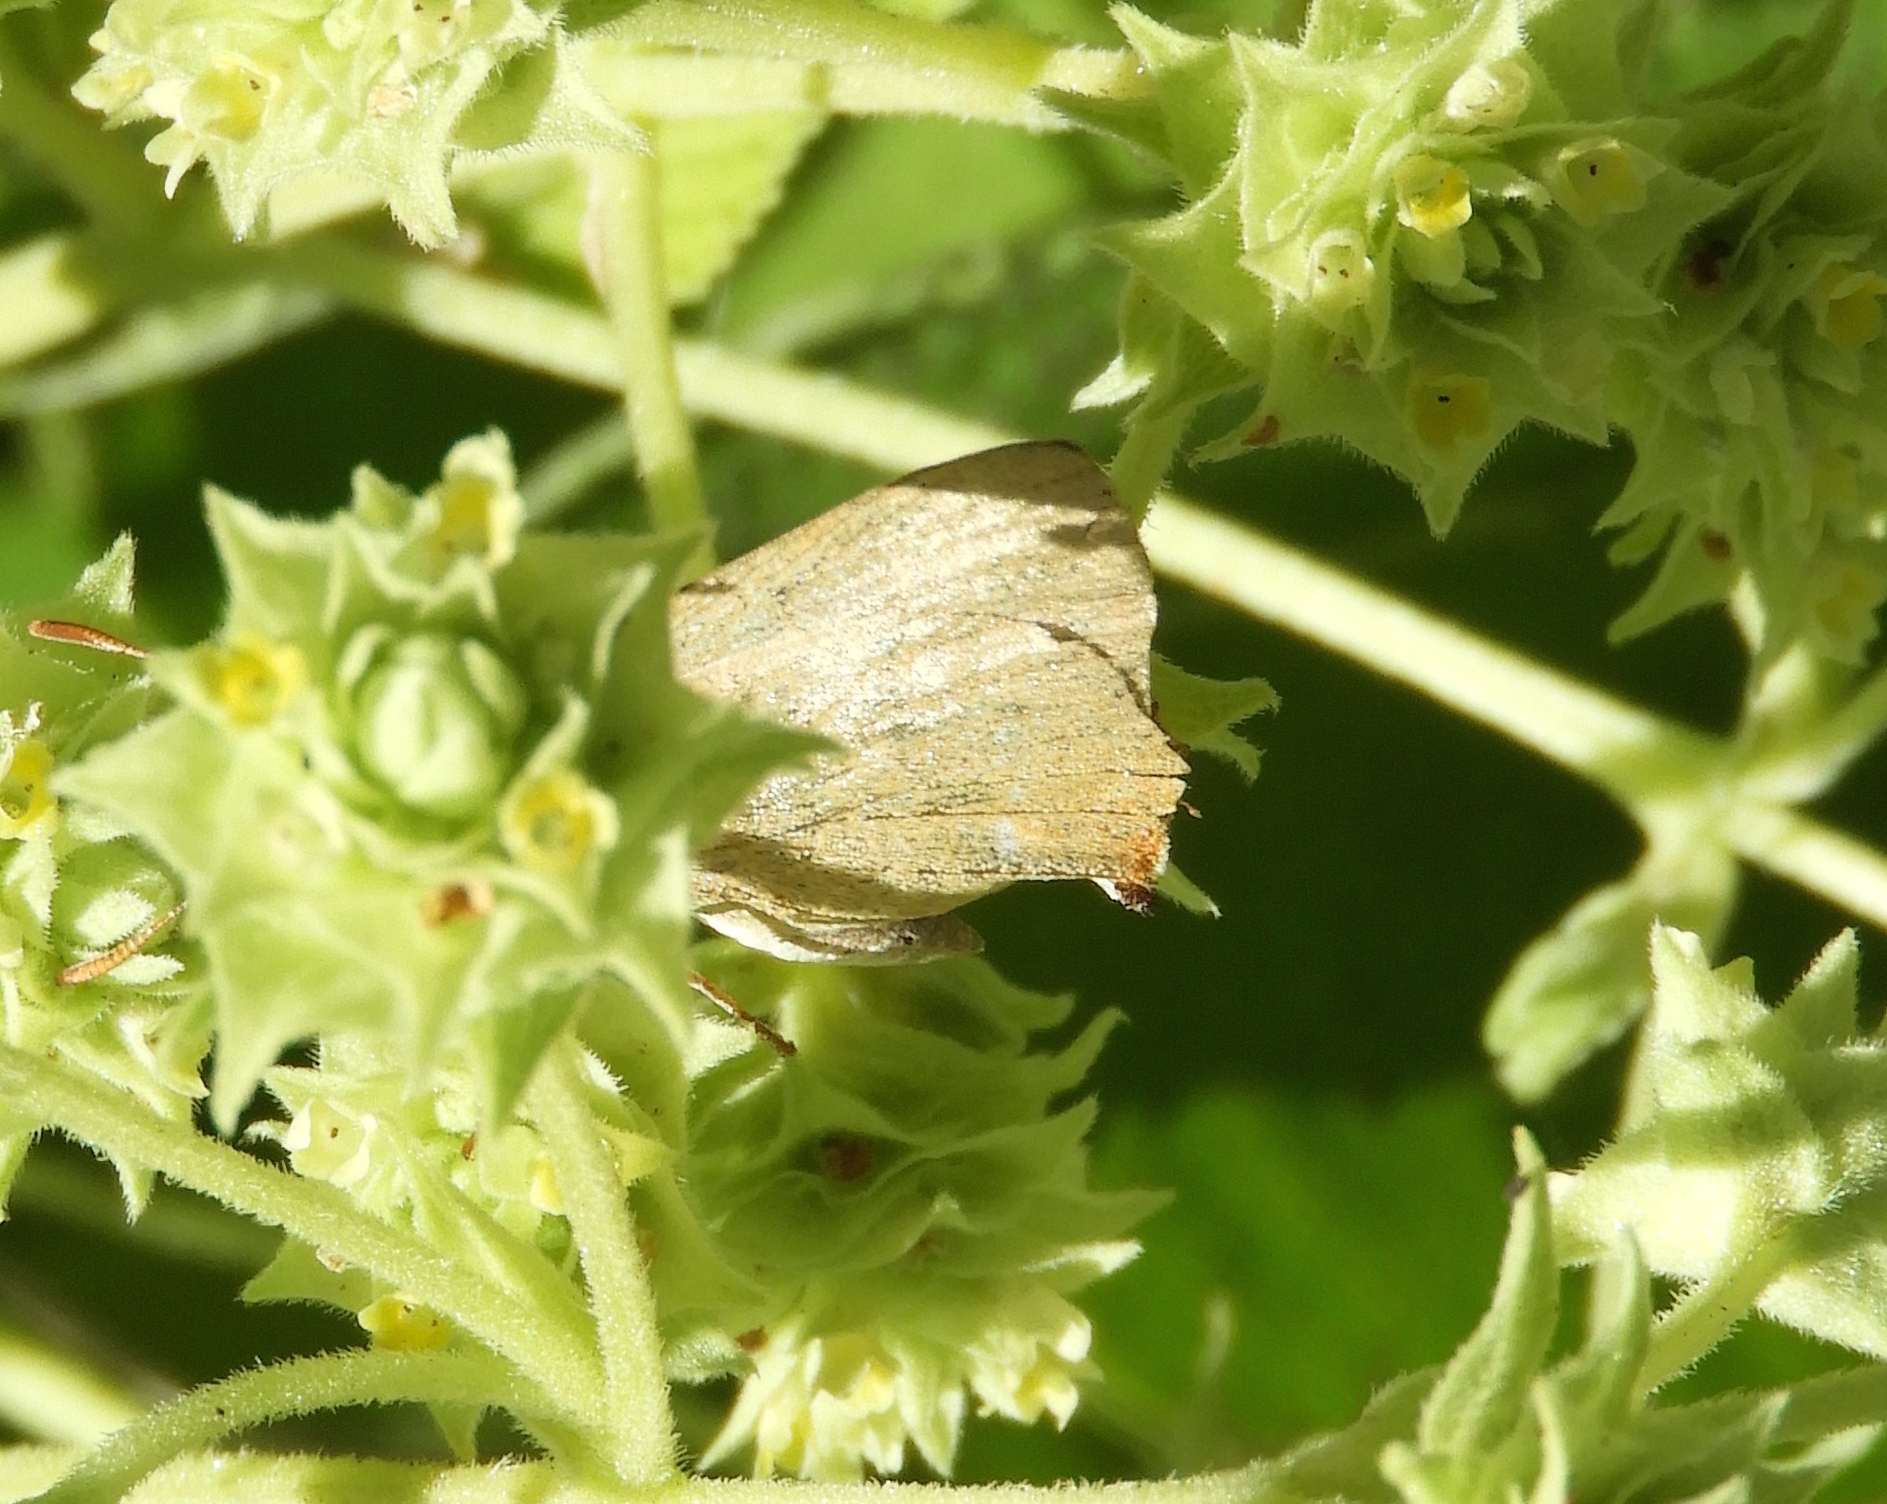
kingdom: Animalia
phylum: Arthropoda
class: Insecta
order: Lepidoptera
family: Lycaenidae
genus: Cyanophrys
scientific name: Cyanophrys
